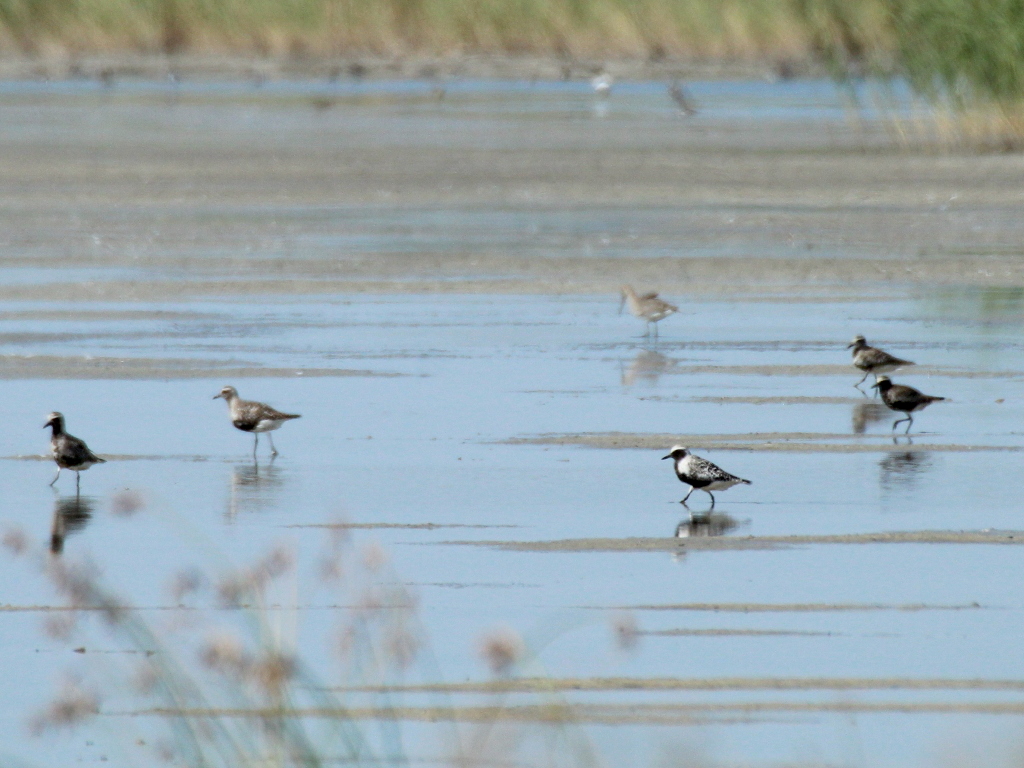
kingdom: Animalia
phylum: Chordata
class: Aves
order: Charadriiformes
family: Charadriidae
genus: Pluvialis
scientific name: Pluvialis squatarola
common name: Grey plover
